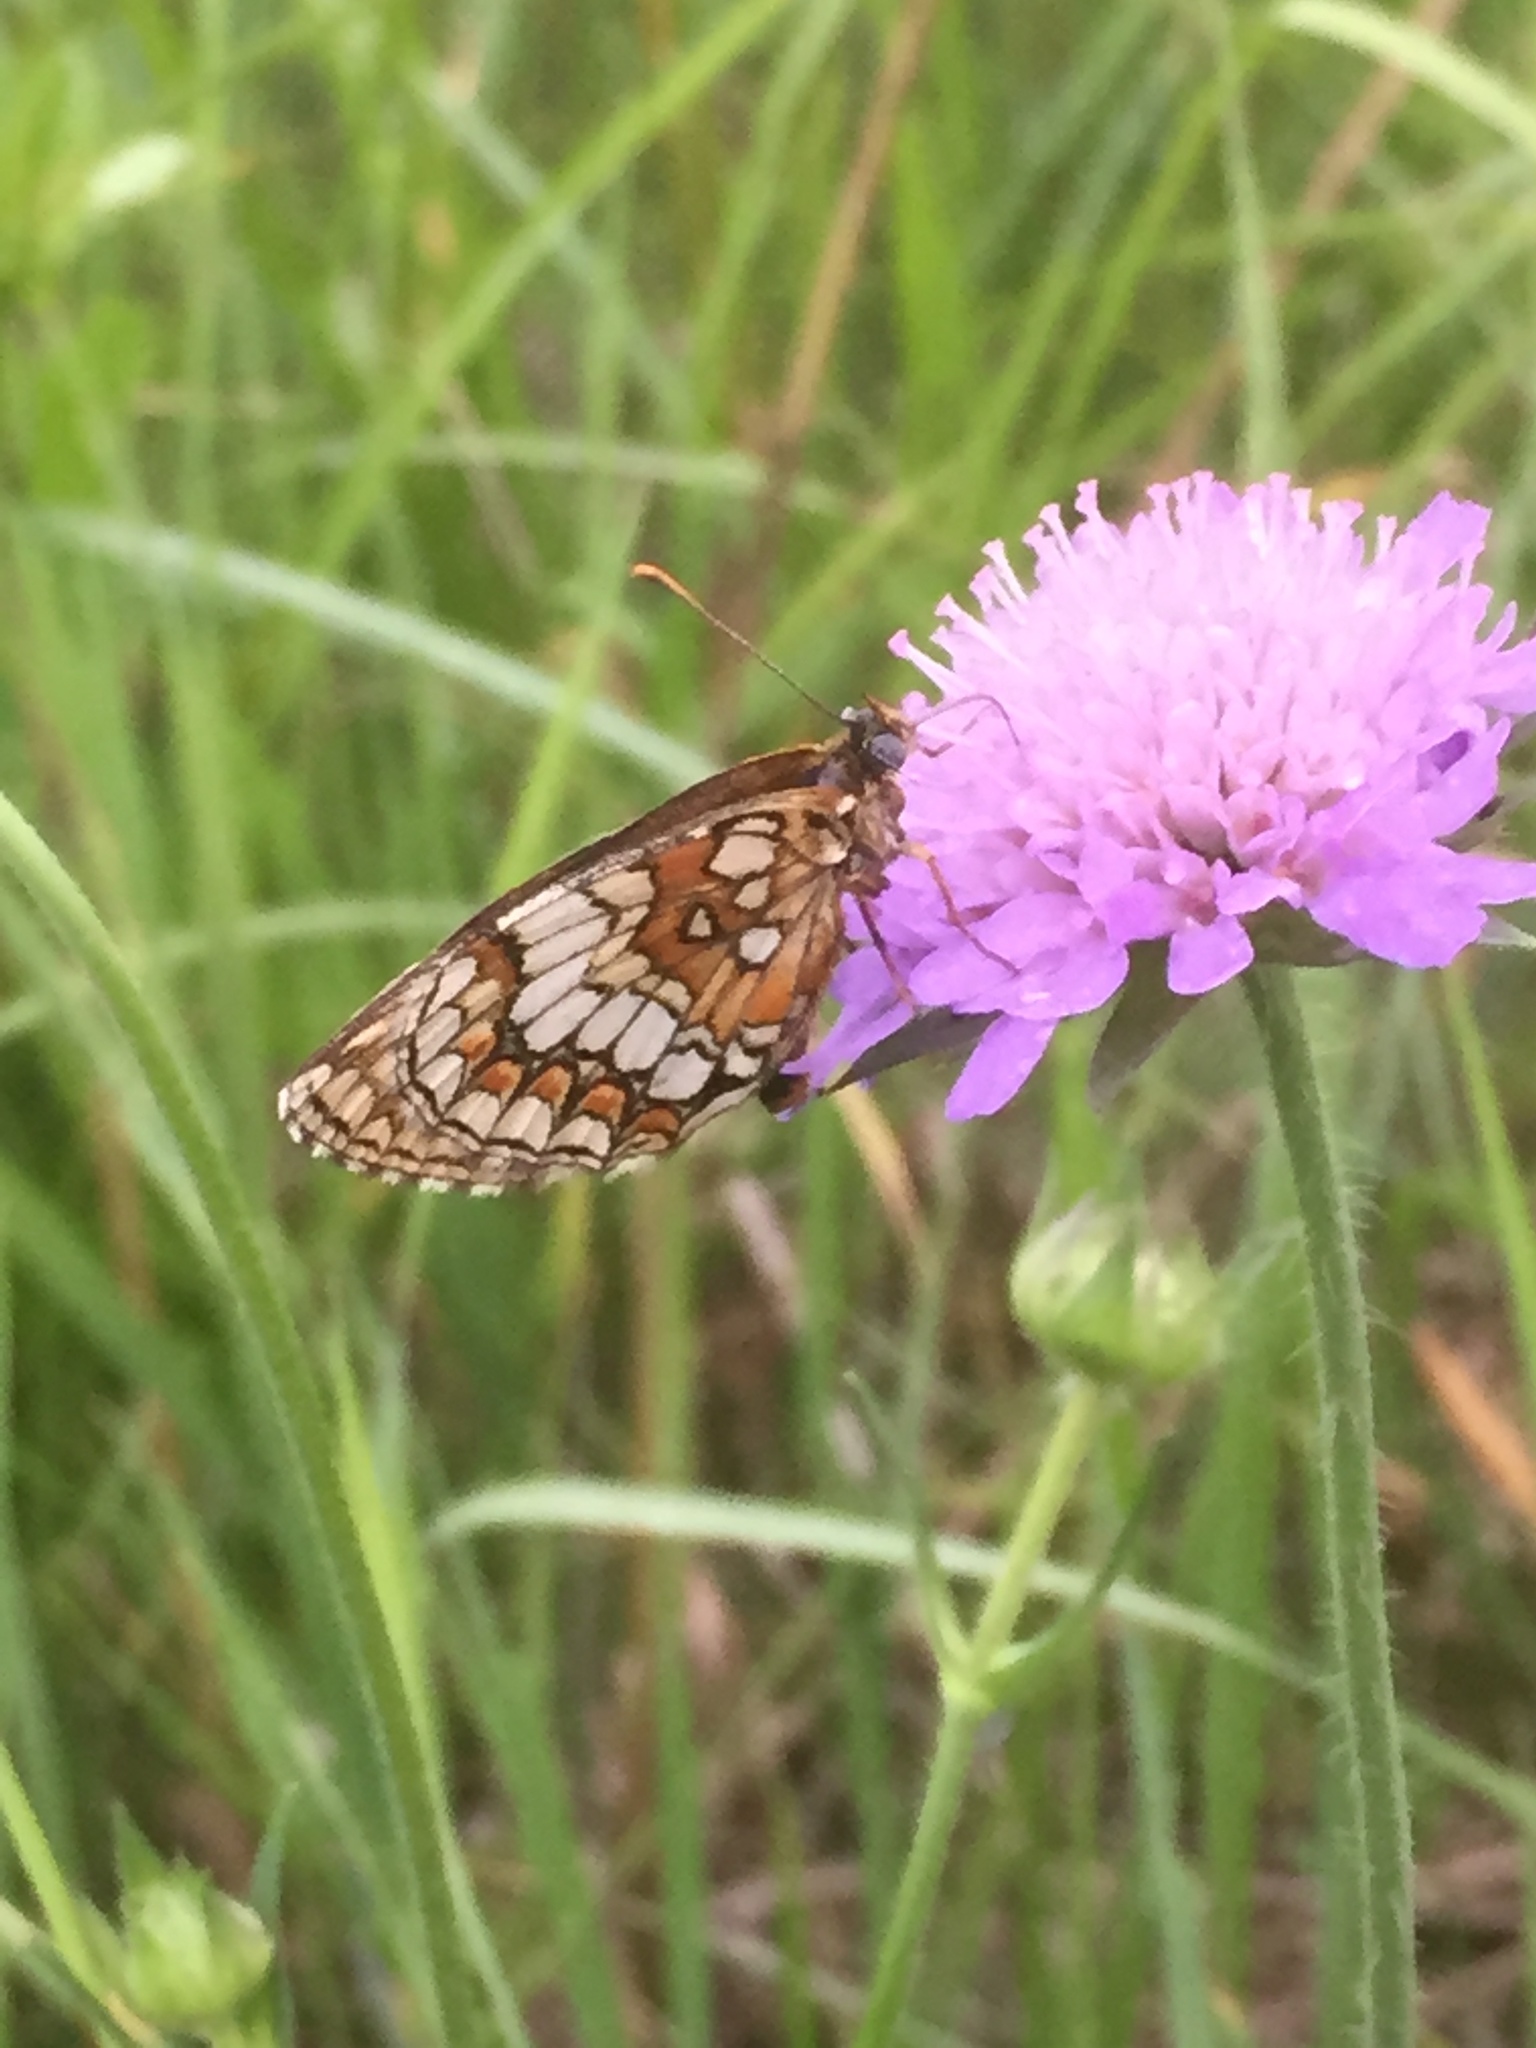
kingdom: Animalia
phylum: Arthropoda
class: Insecta
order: Lepidoptera
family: Nymphalidae
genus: Melitaea
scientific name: Melitaea athalia
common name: Heath fritillary
